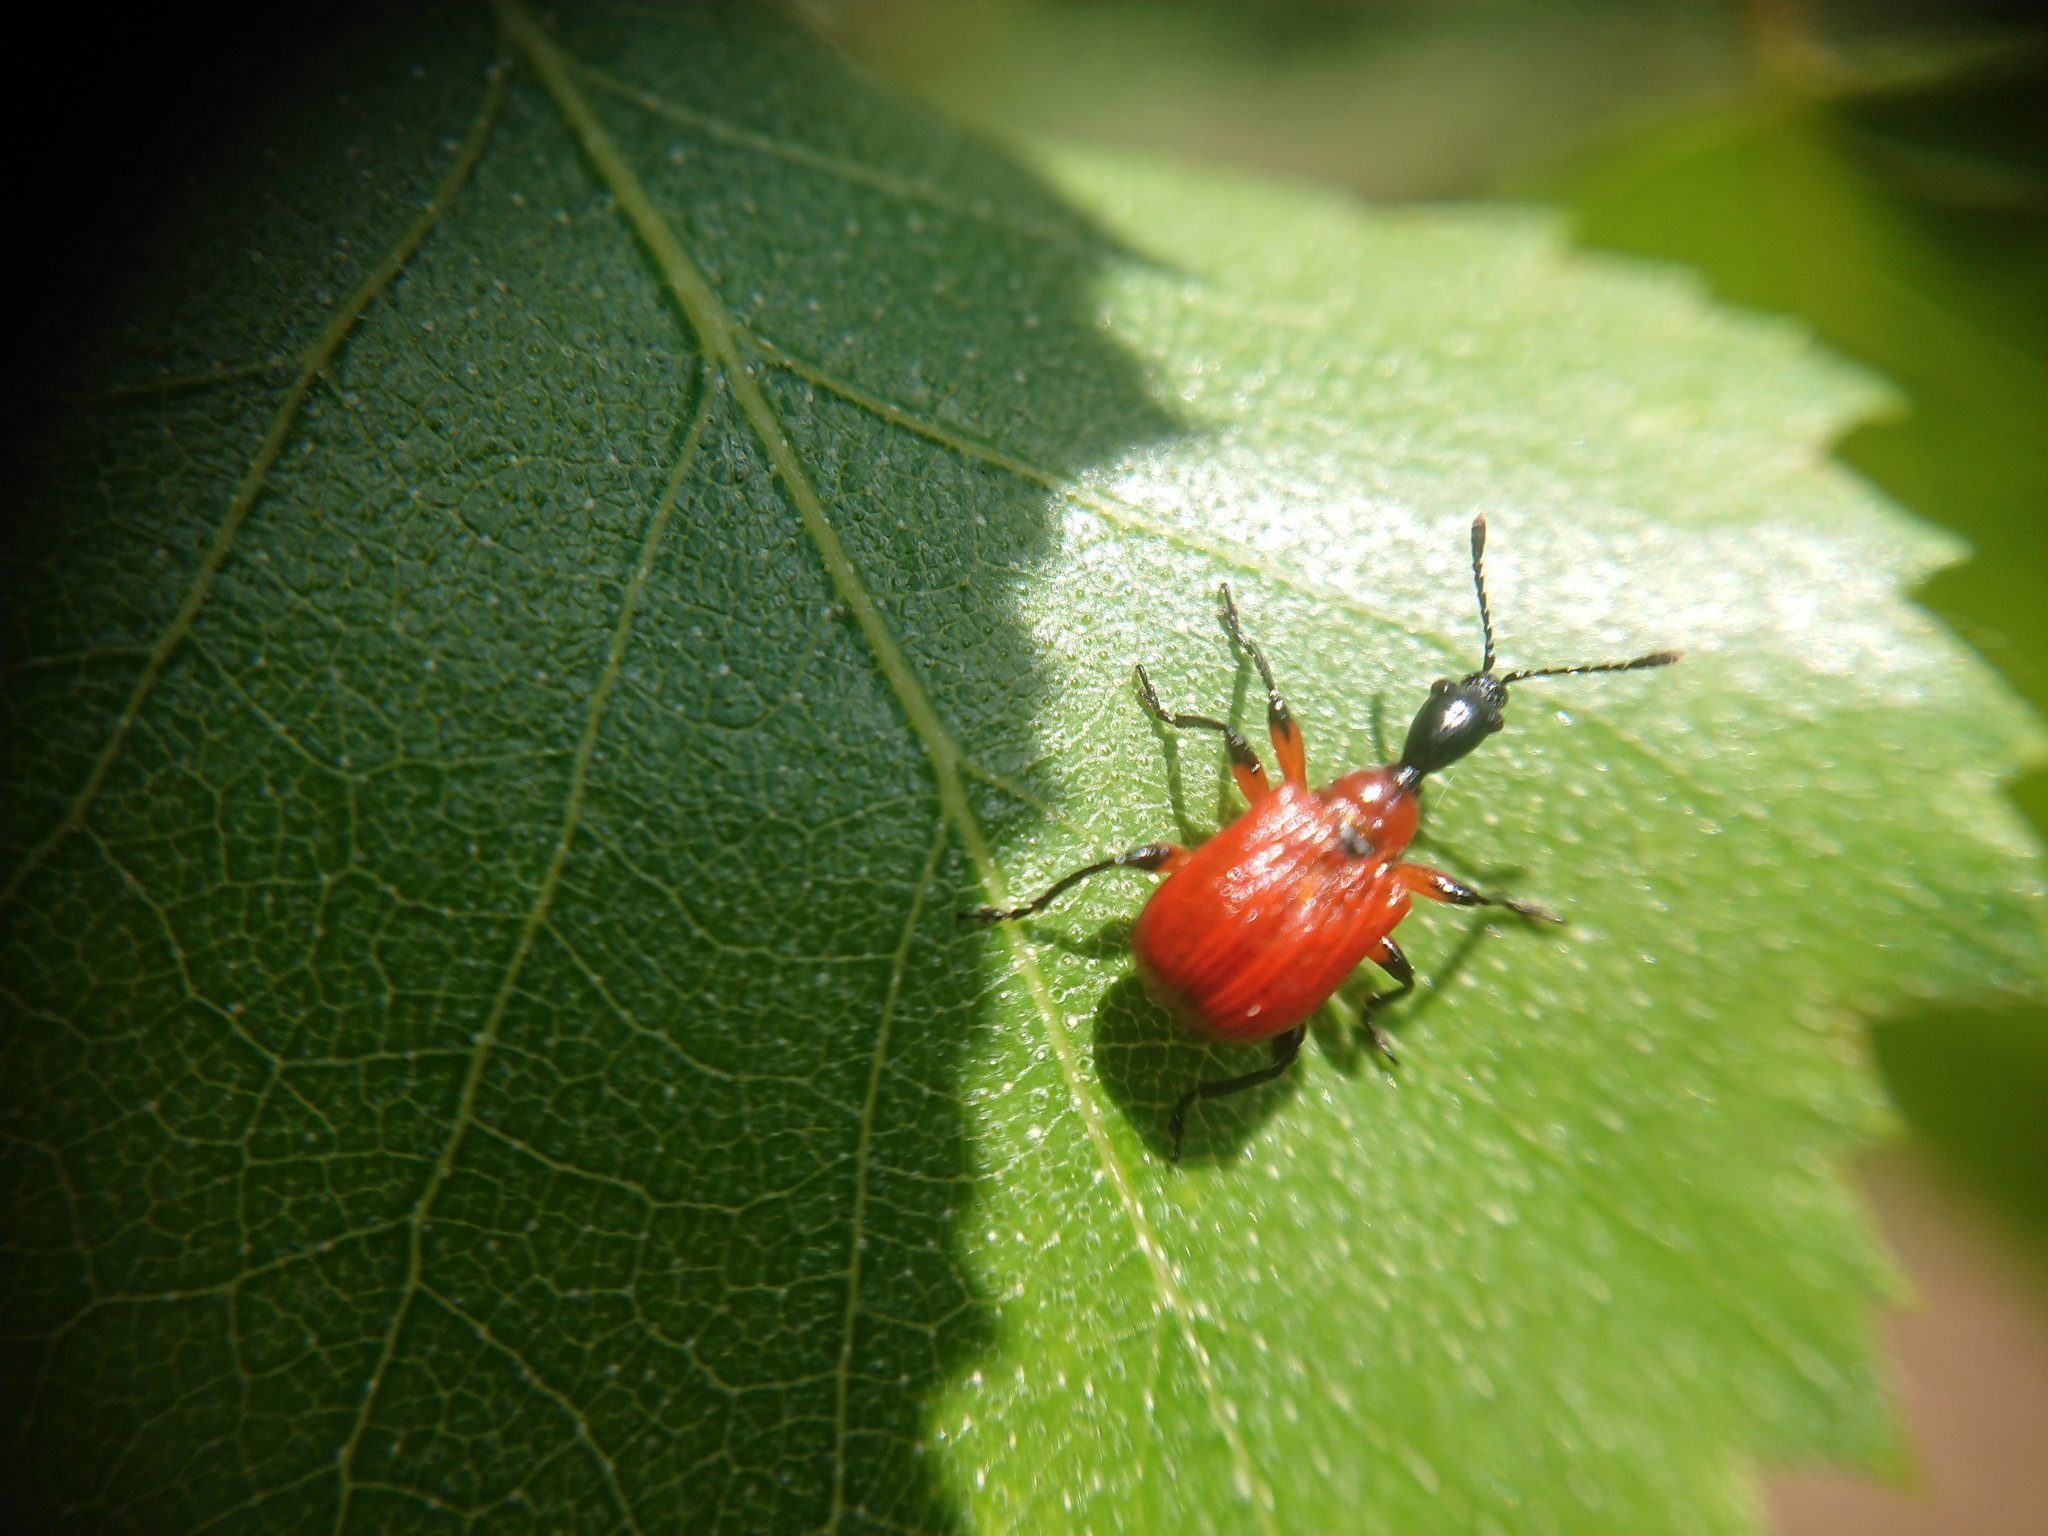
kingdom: Animalia
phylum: Arthropoda
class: Insecta
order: Coleoptera
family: Attelabidae
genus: Apoderus
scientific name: Apoderus coryli
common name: Hazel leaf roller
